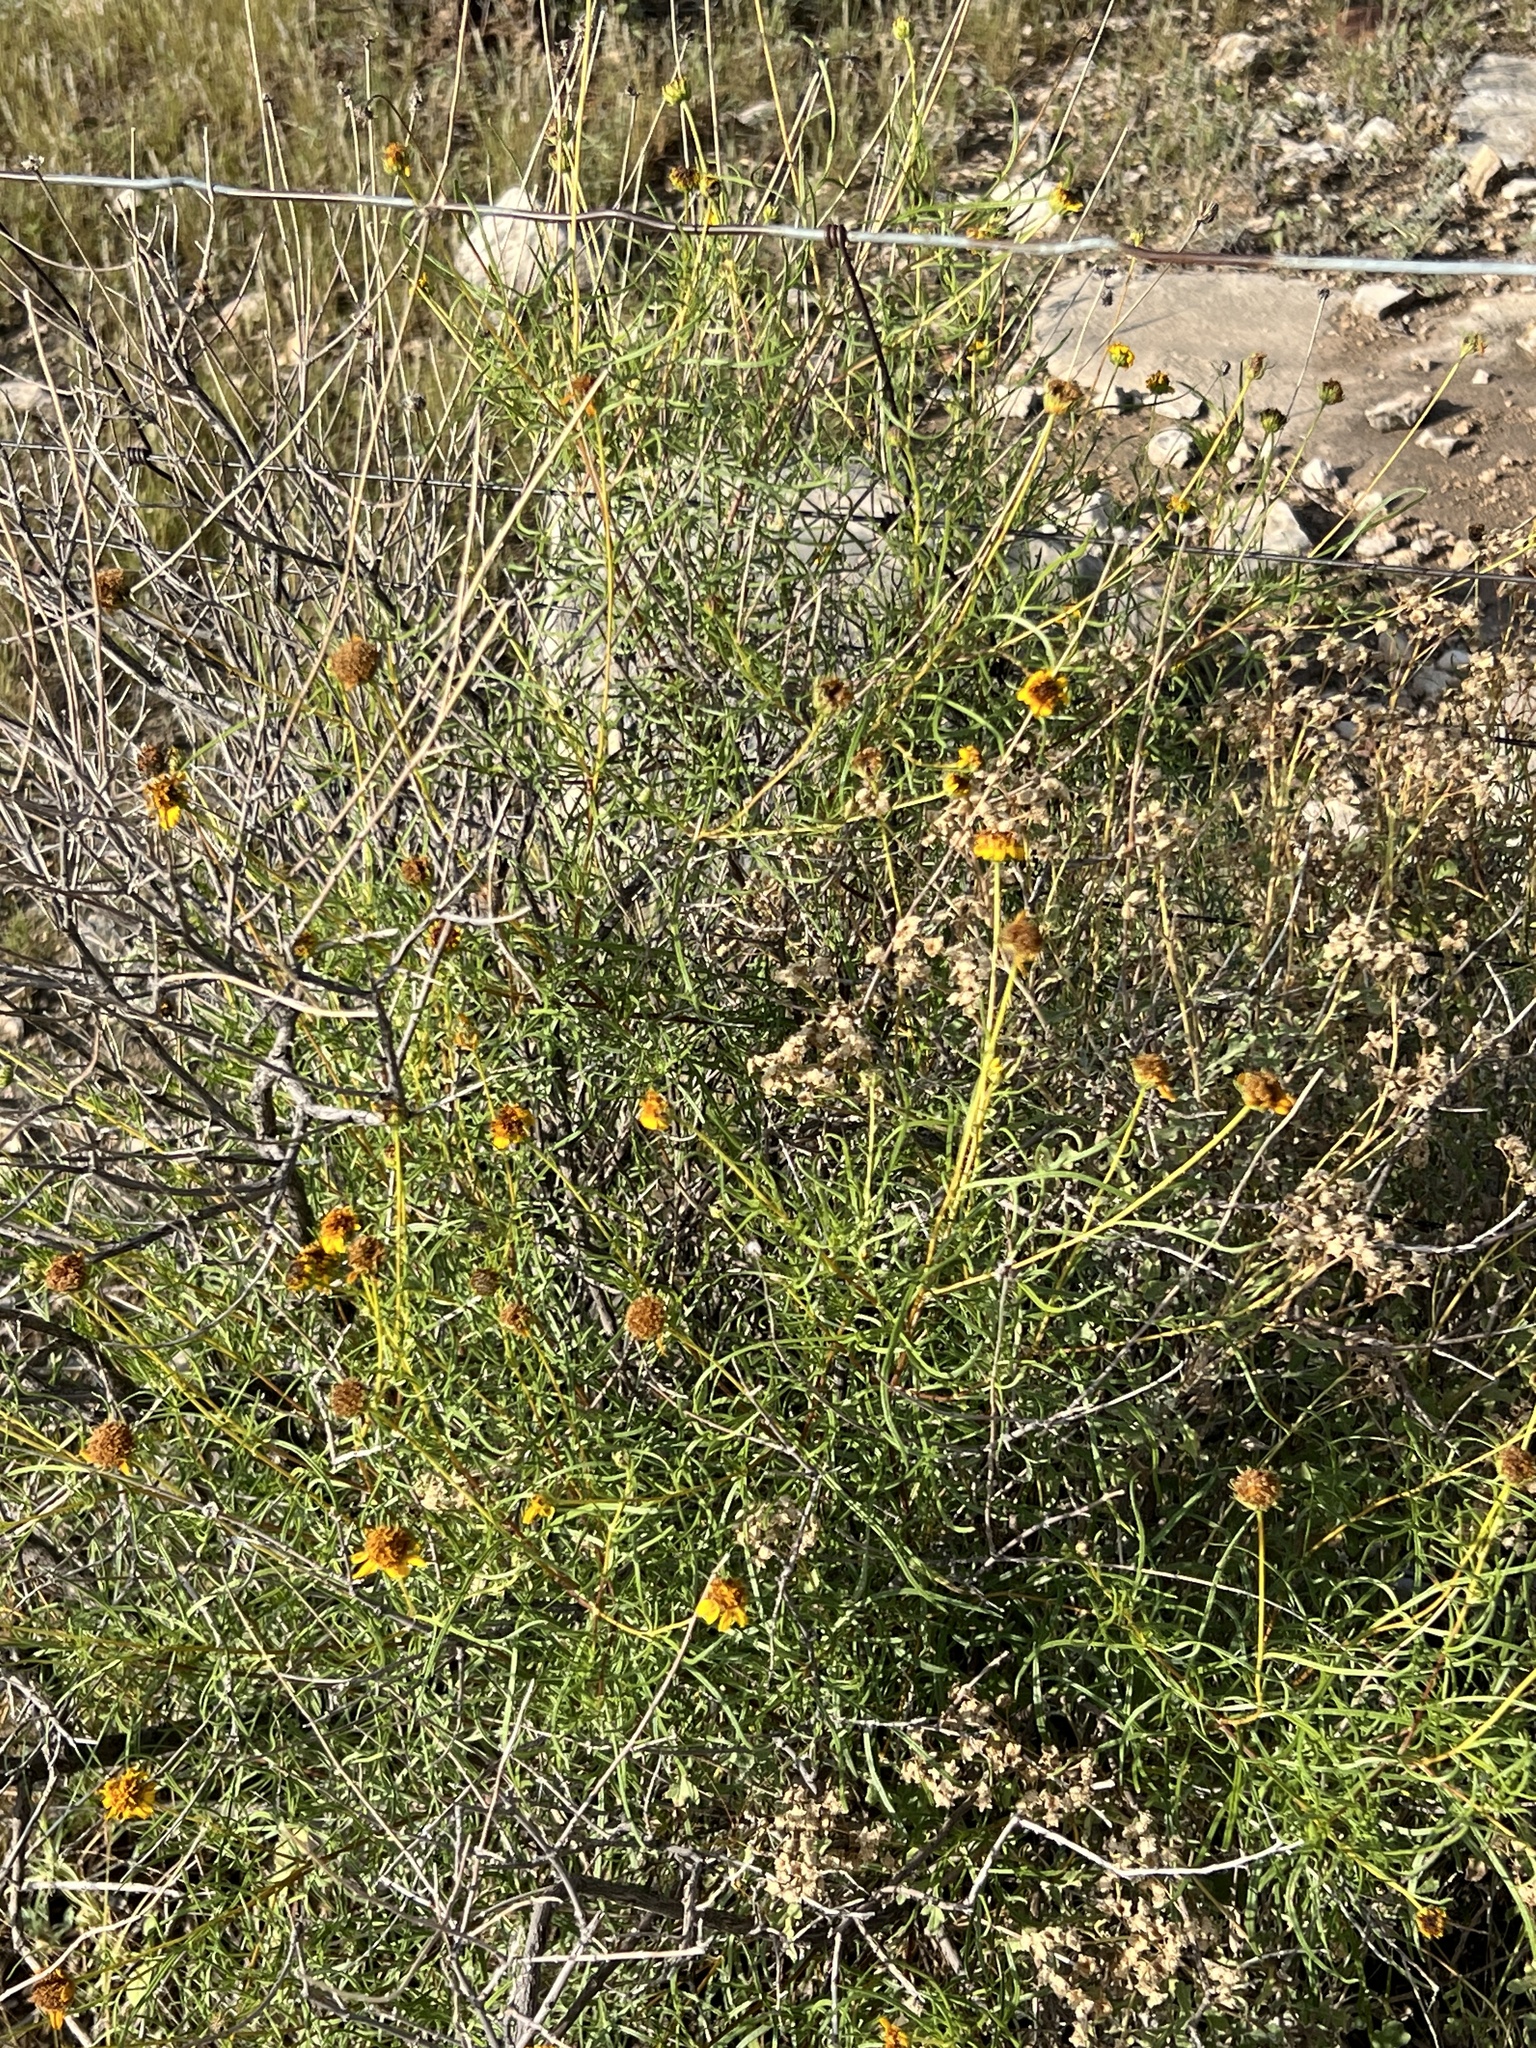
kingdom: Plantae
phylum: Tracheophyta
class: Magnoliopsida
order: Asterales
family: Asteraceae
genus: Sidneya
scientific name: Sidneya tenuifolia
